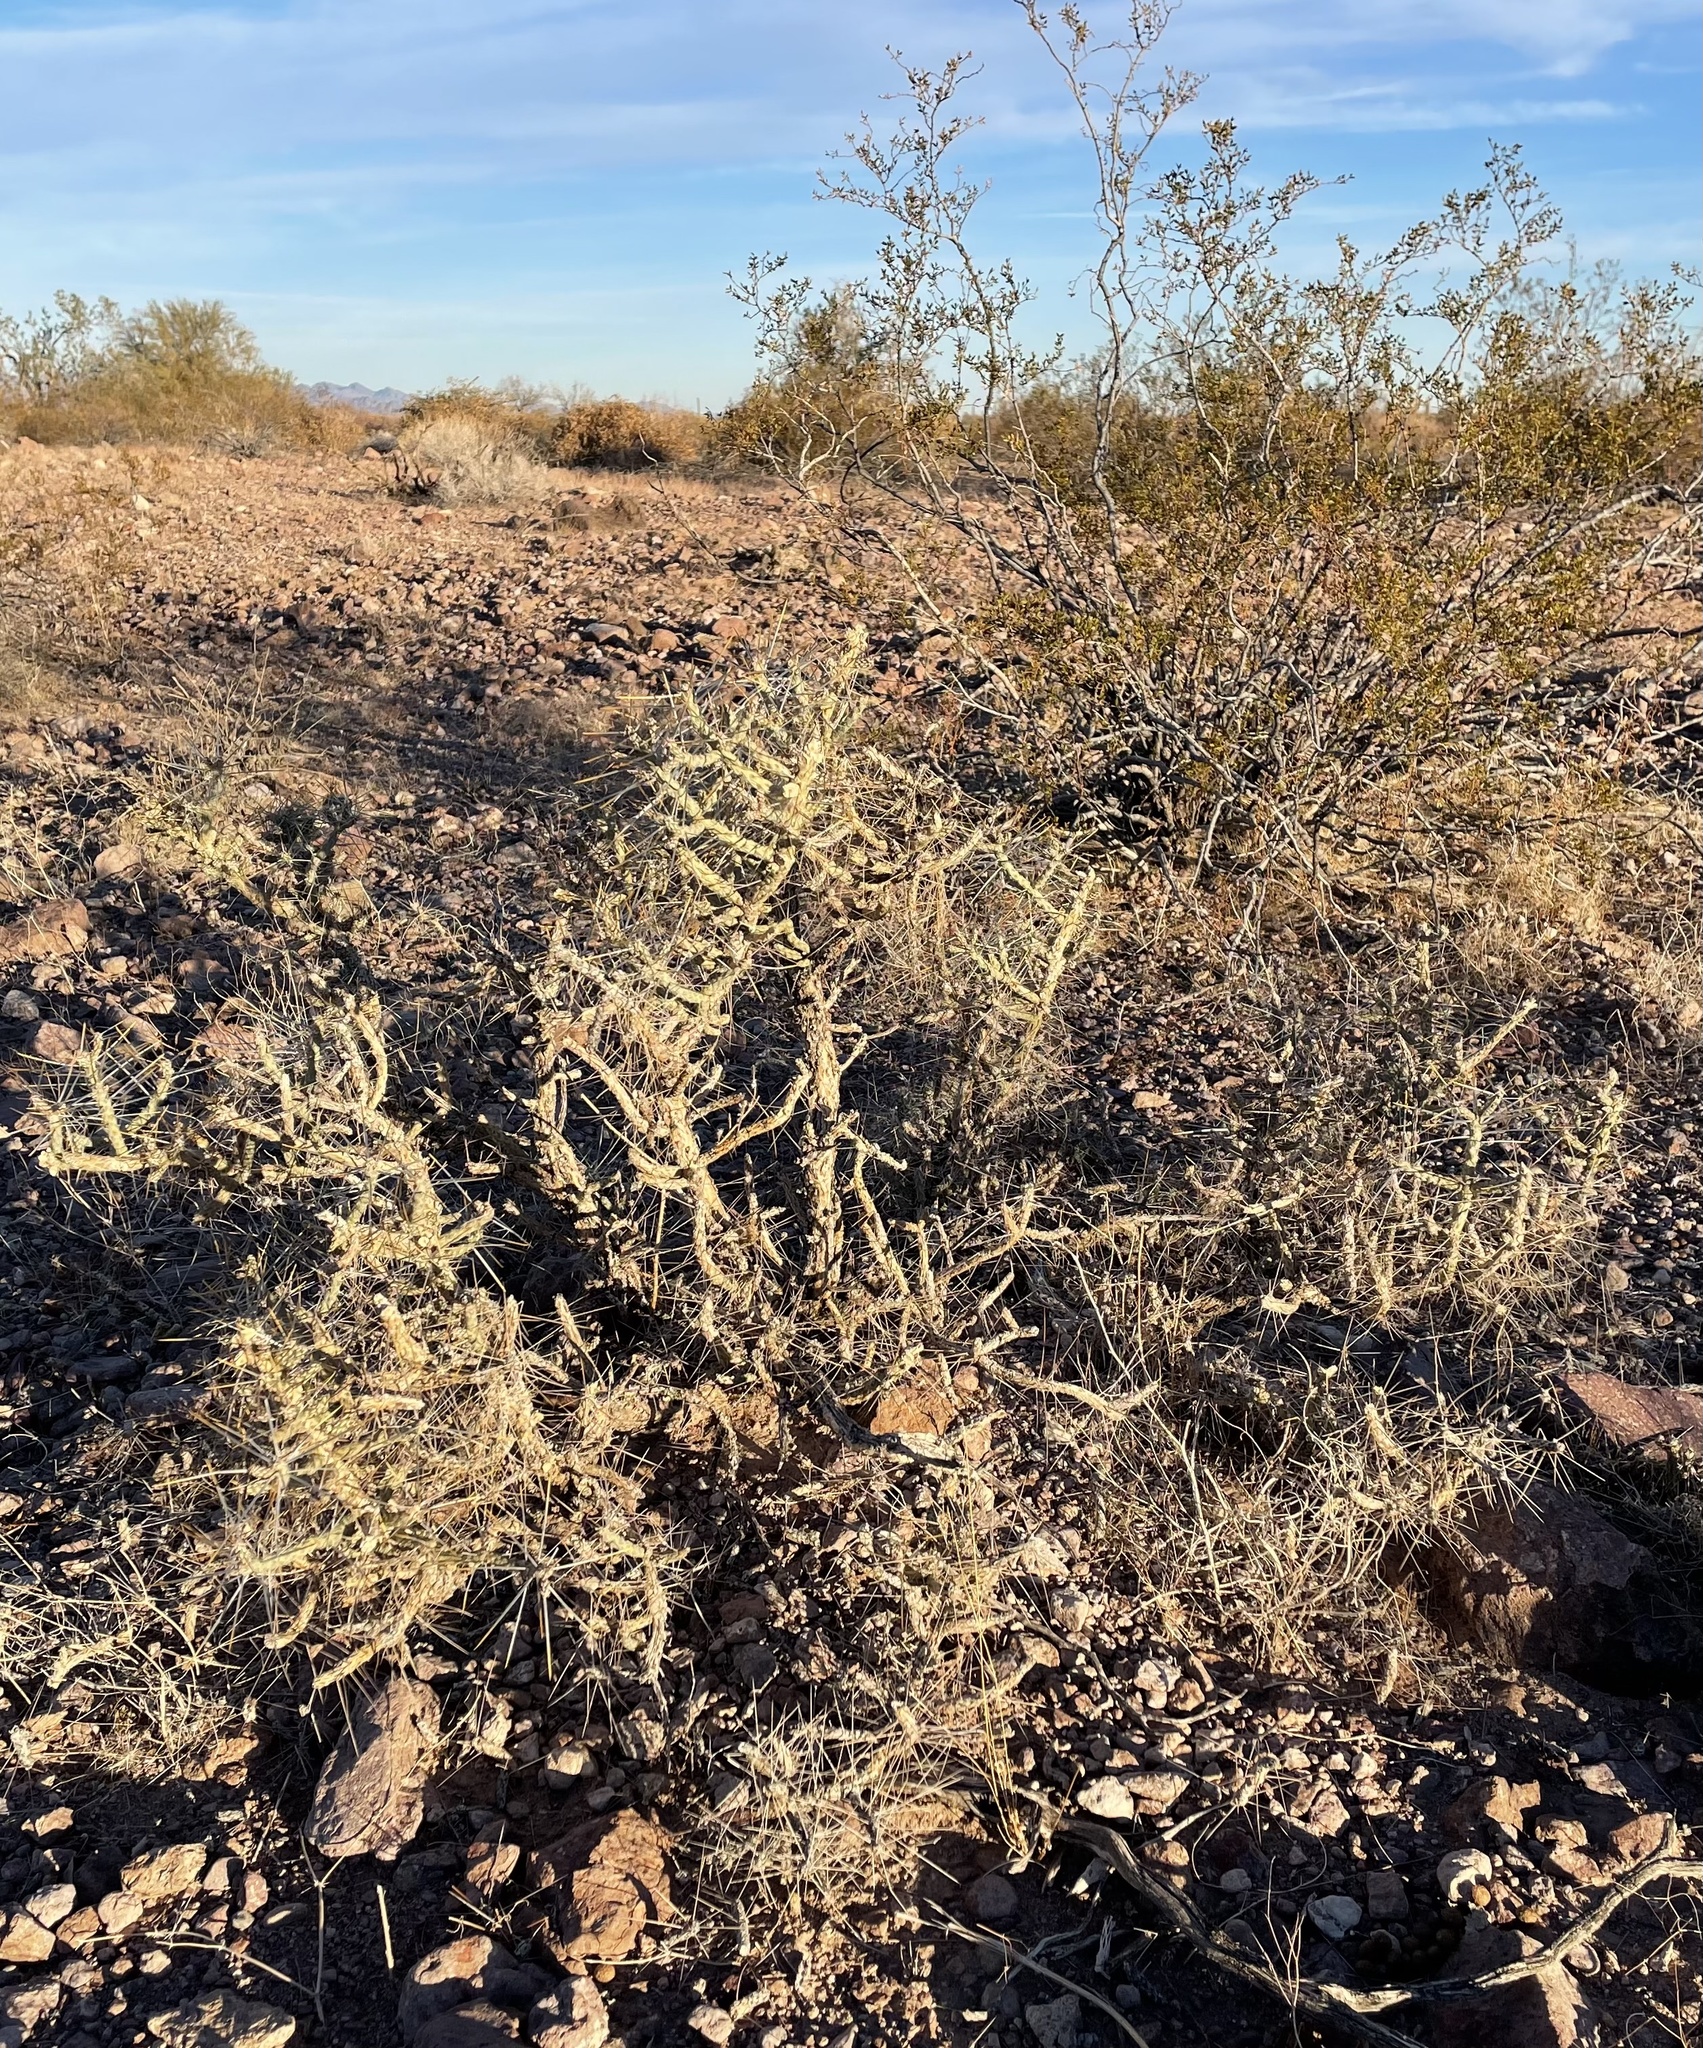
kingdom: Plantae
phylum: Tracheophyta
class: Magnoliopsida
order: Caryophyllales
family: Cactaceae
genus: Cylindropuntia
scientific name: Cylindropuntia ramosissima
